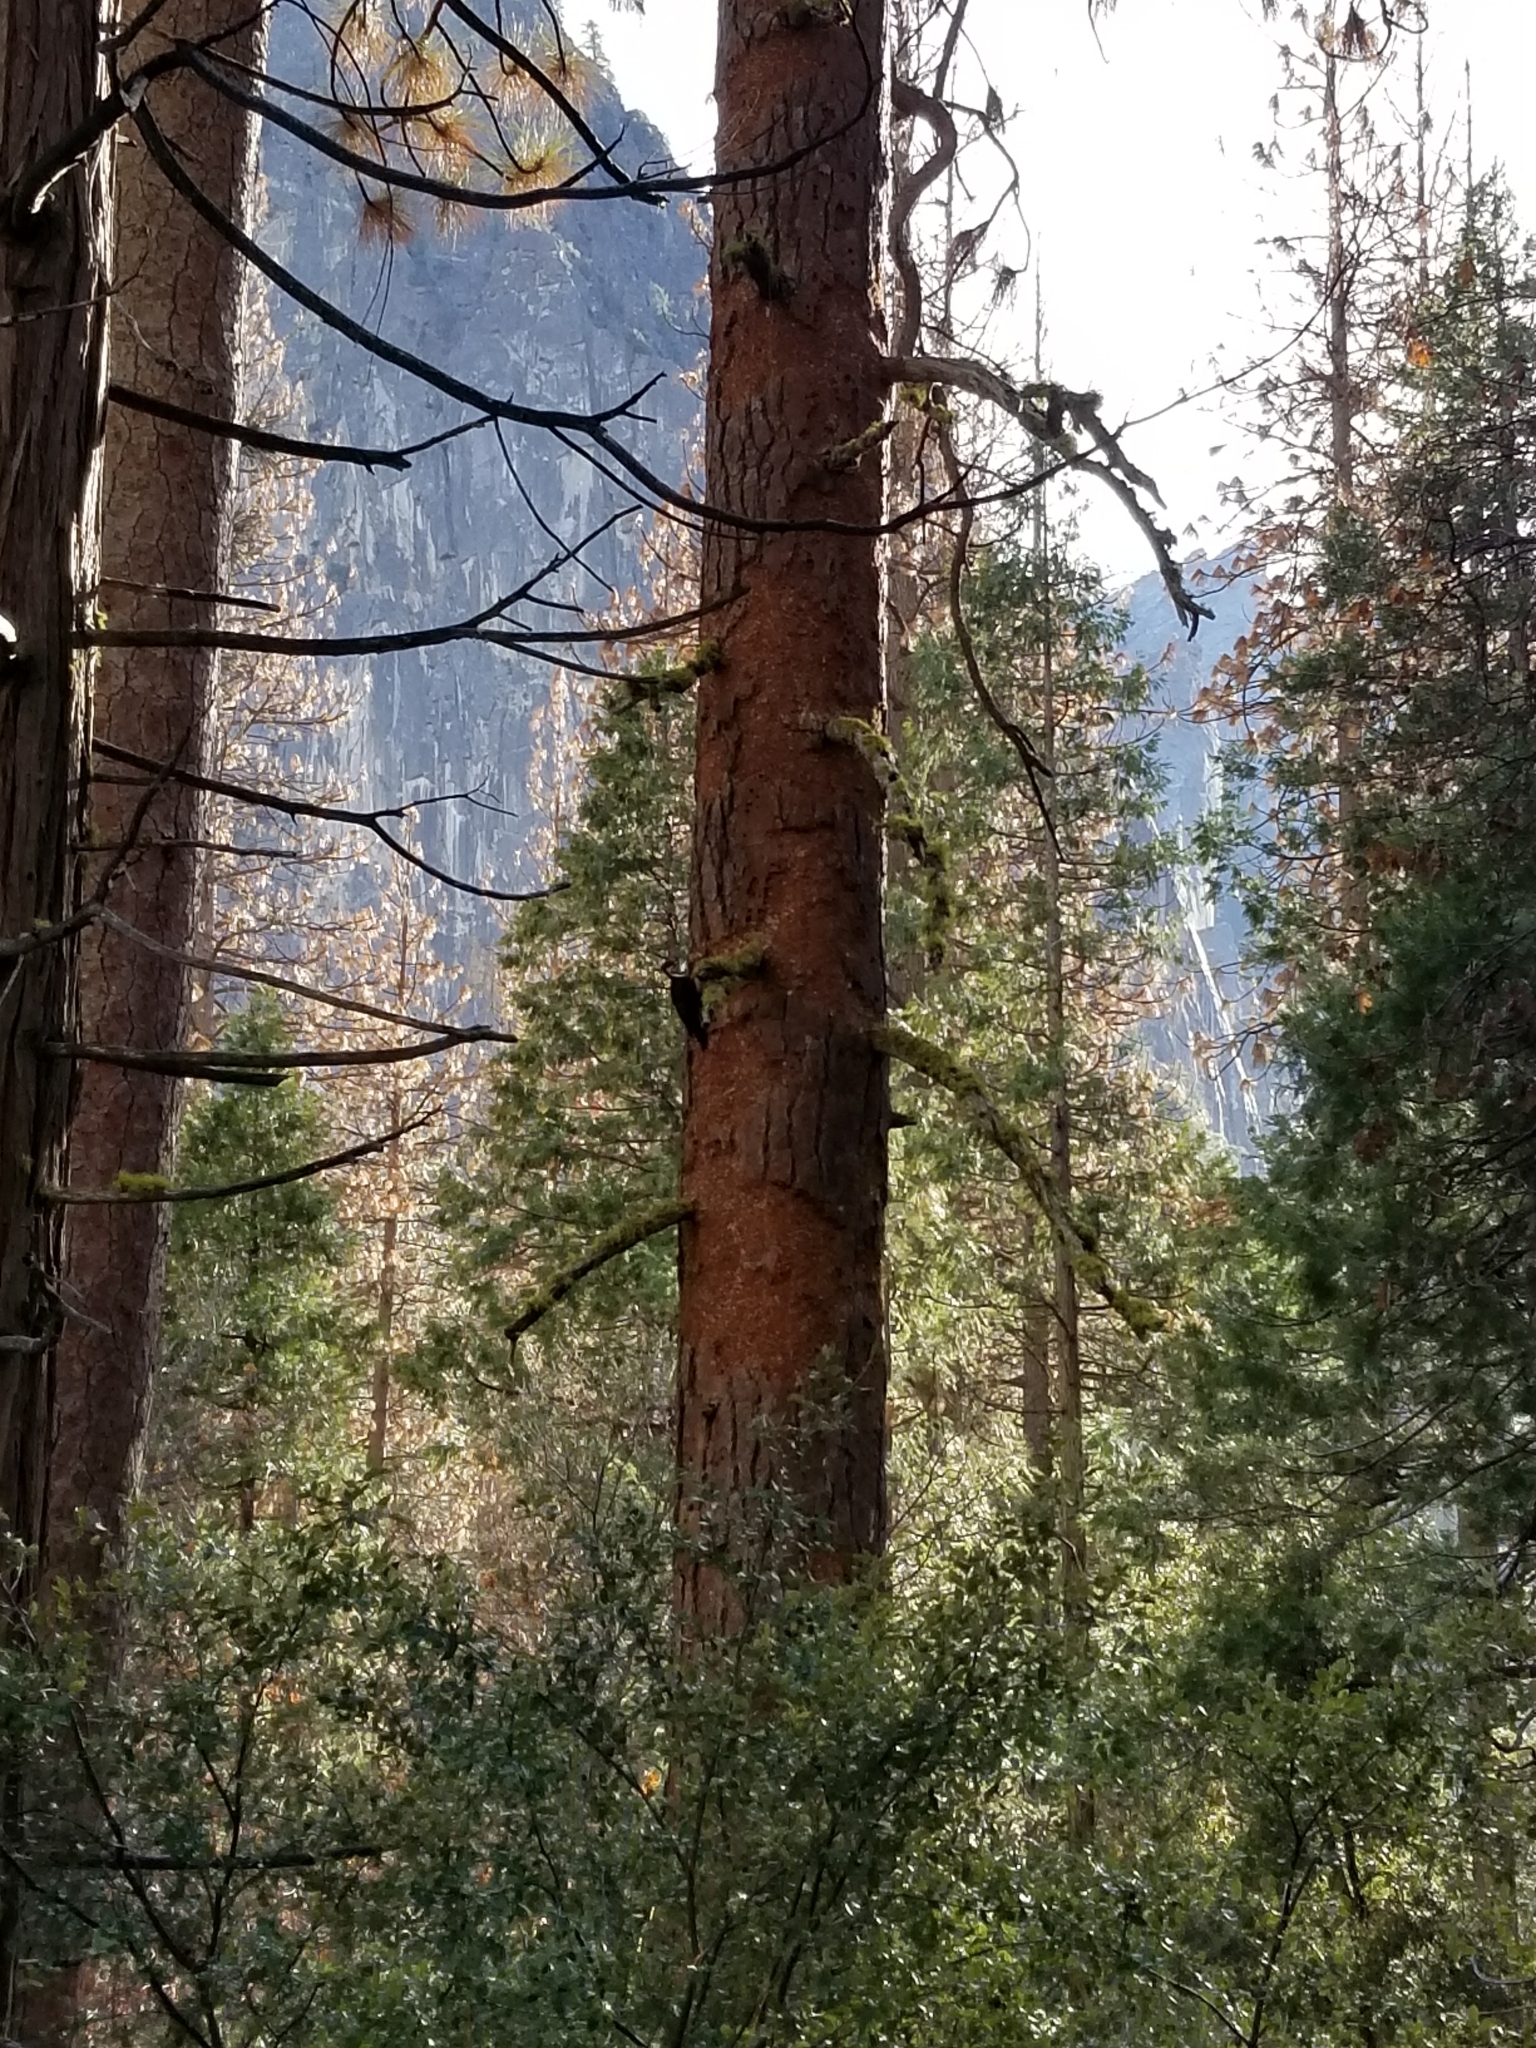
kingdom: Animalia
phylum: Chordata
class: Aves
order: Piciformes
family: Picidae
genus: Dryocopus
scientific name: Dryocopus pileatus
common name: Pileated woodpecker
